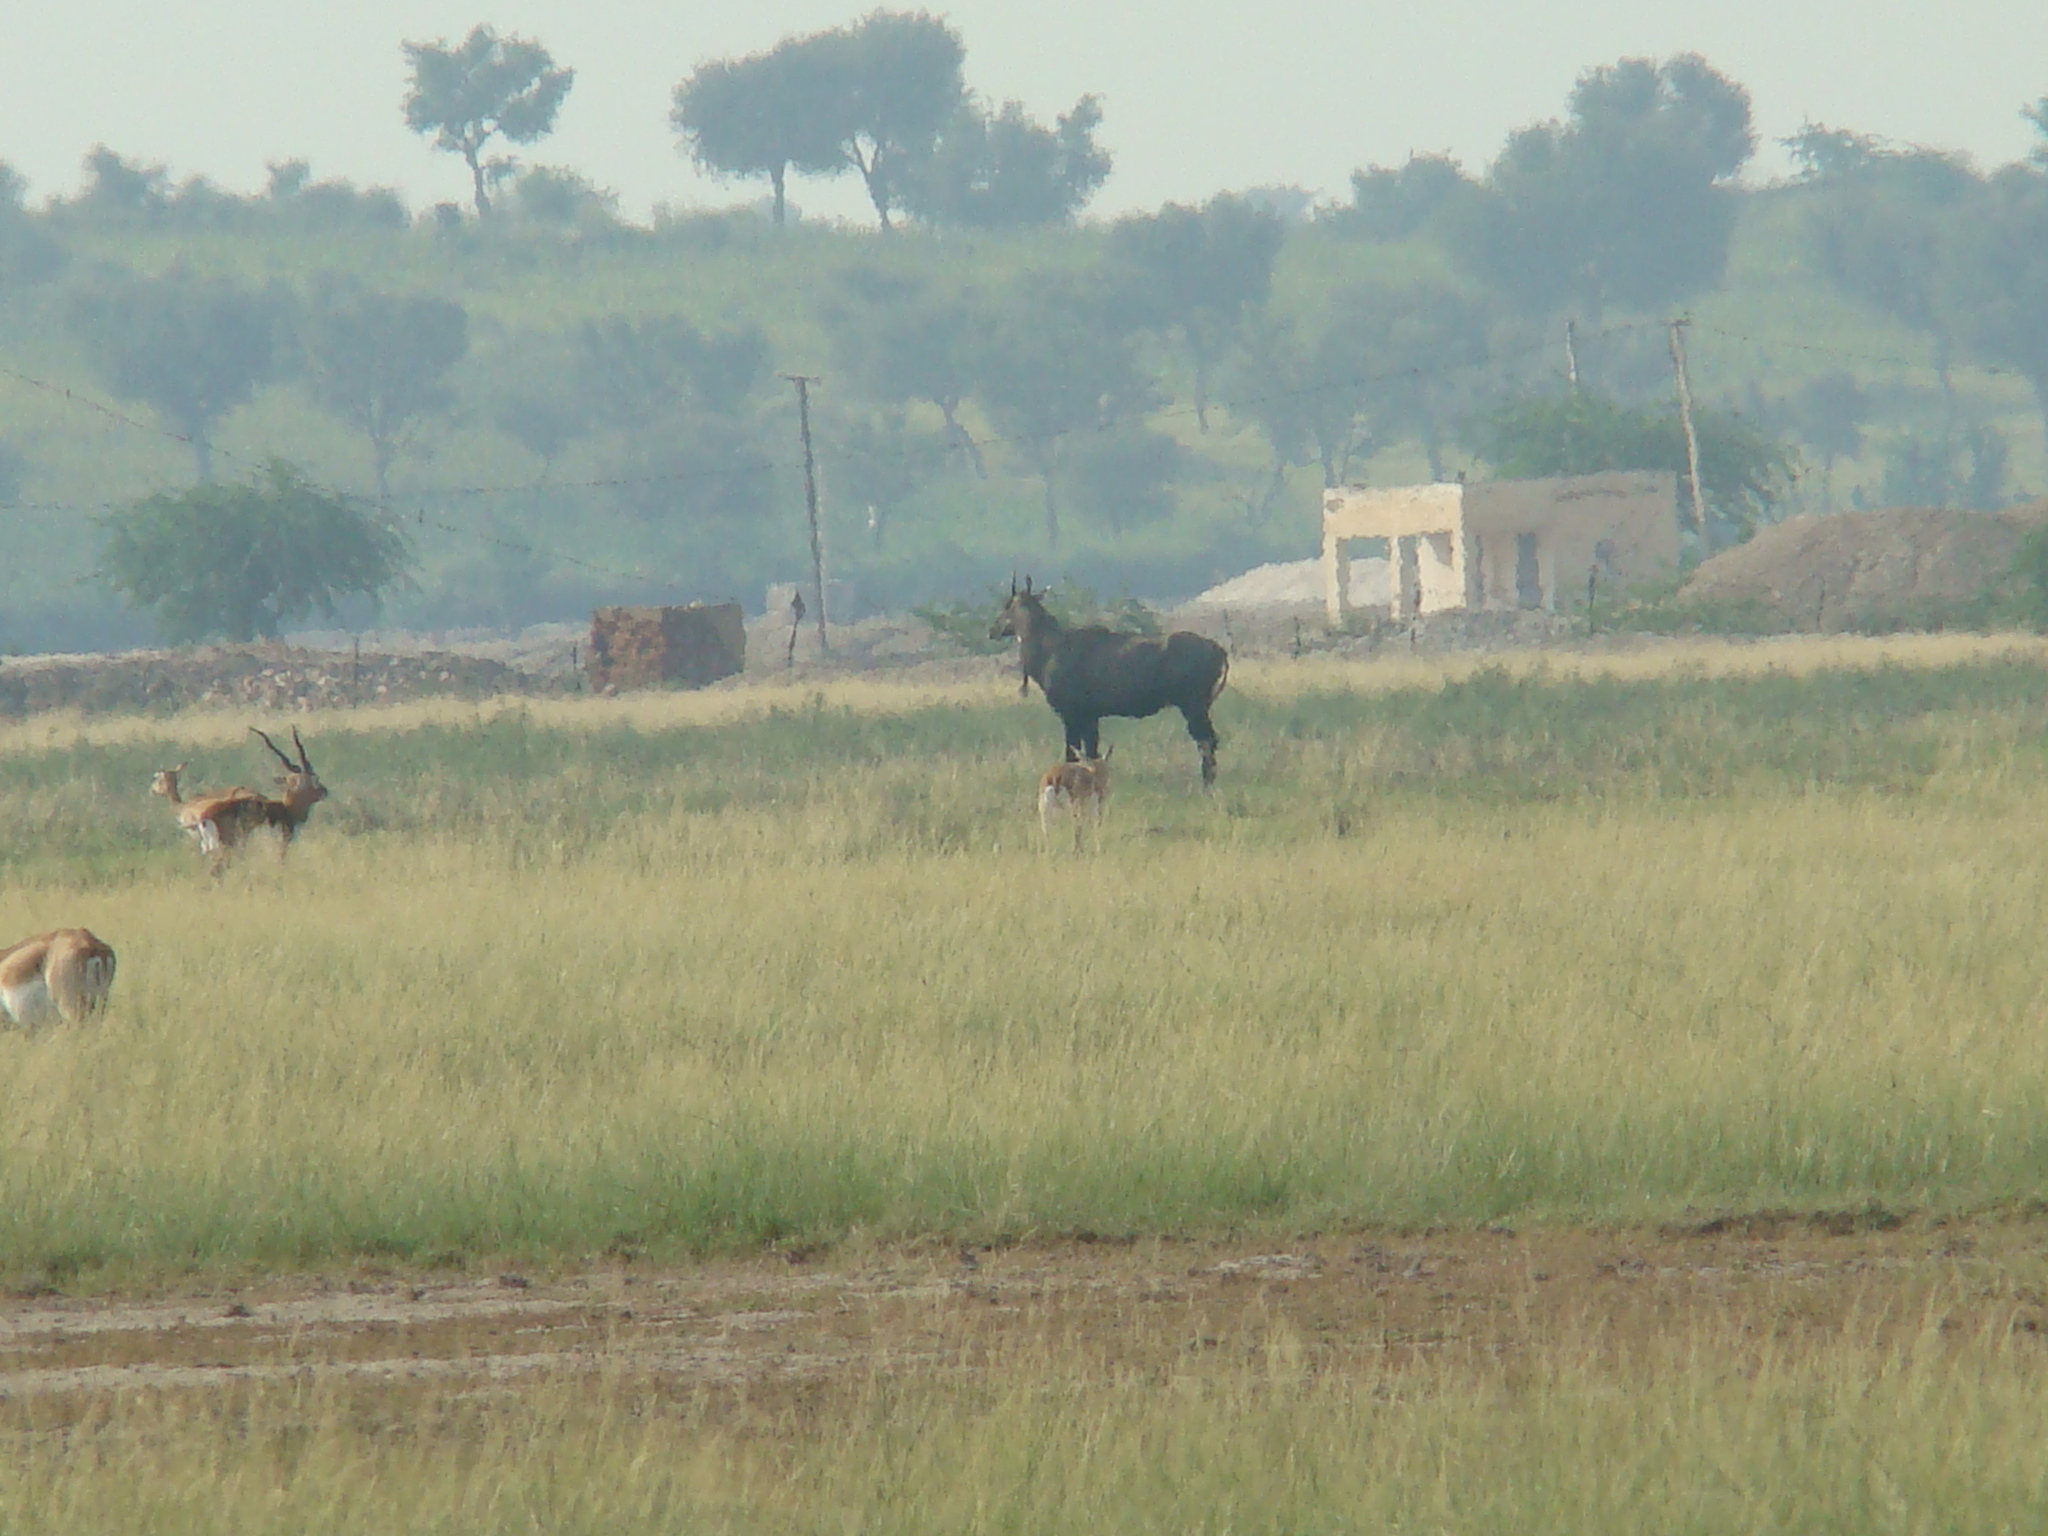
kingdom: Animalia
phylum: Chordata
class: Mammalia
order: Artiodactyla
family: Bovidae
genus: Boselaphus
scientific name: Boselaphus tragocamelus
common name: Nilgai
